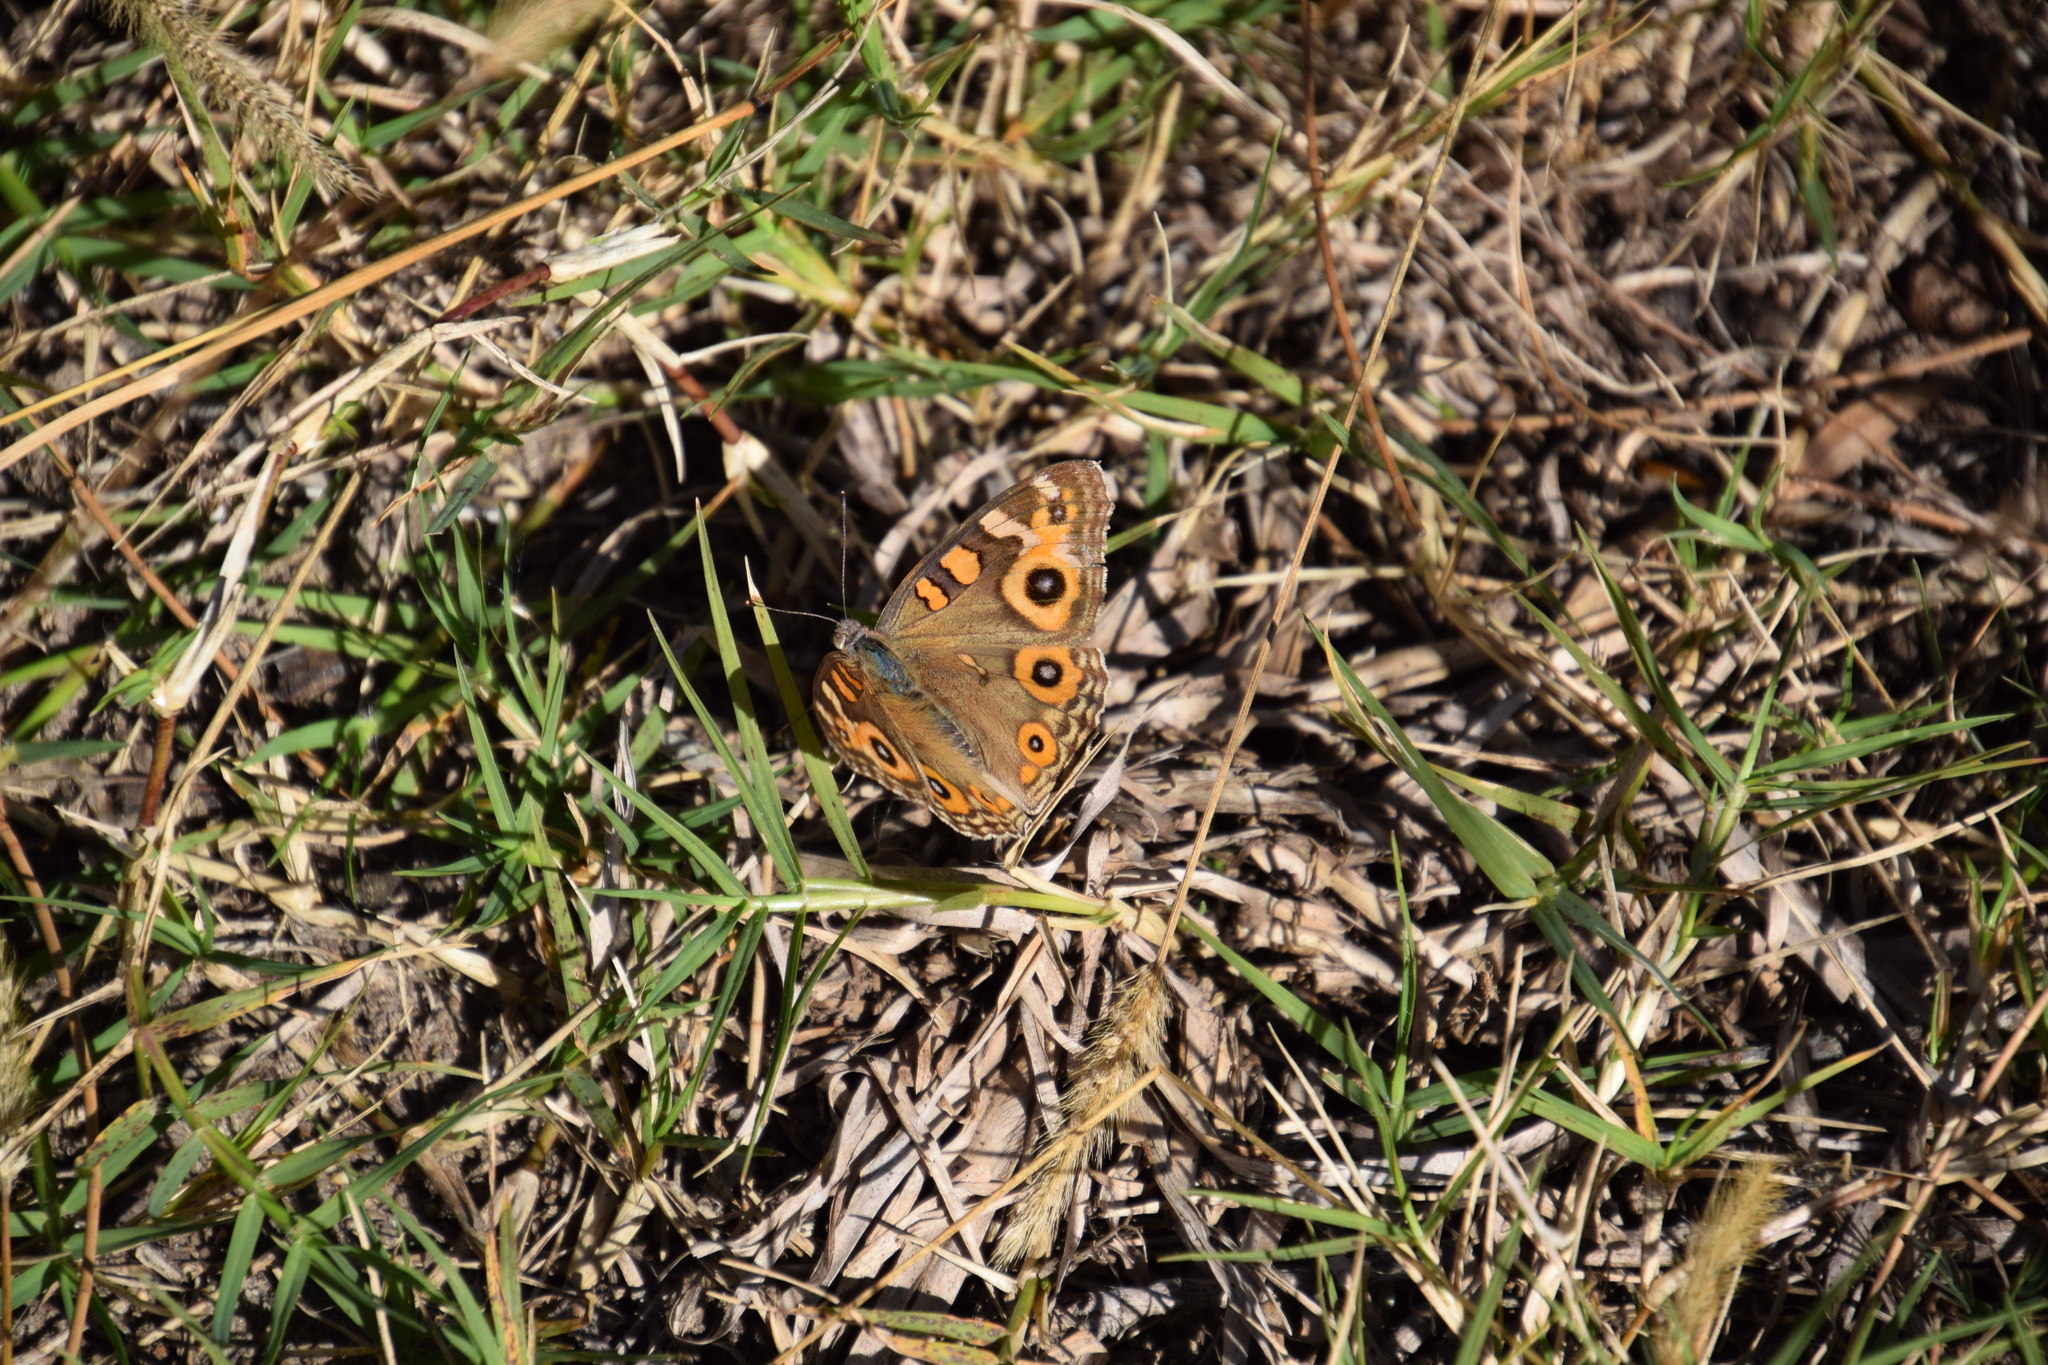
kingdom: Animalia
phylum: Arthropoda
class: Insecta
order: Lepidoptera
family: Nymphalidae
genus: Junonia
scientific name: Junonia villida
